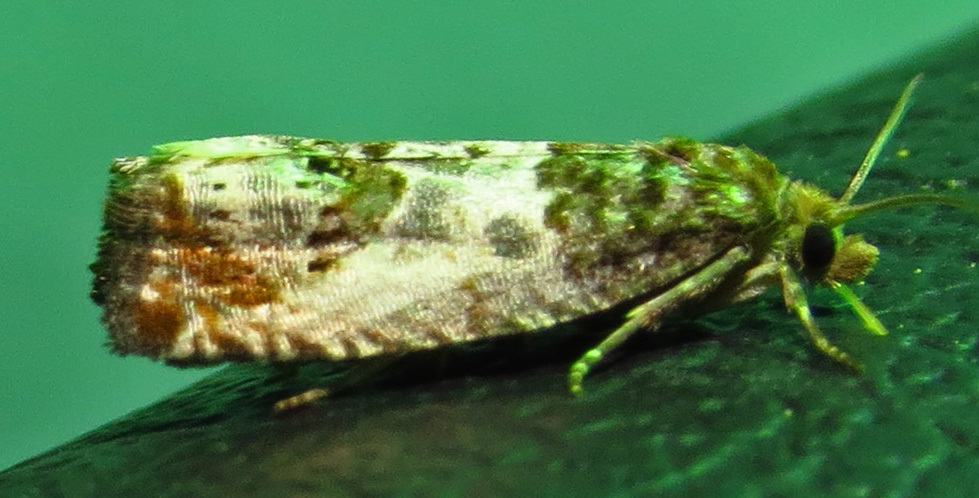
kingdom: Animalia
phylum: Arthropoda
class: Insecta
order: Lepidoptera
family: Tortricidae
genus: Notocelia
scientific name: Notocelia rosaecolana
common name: Common rose bell
